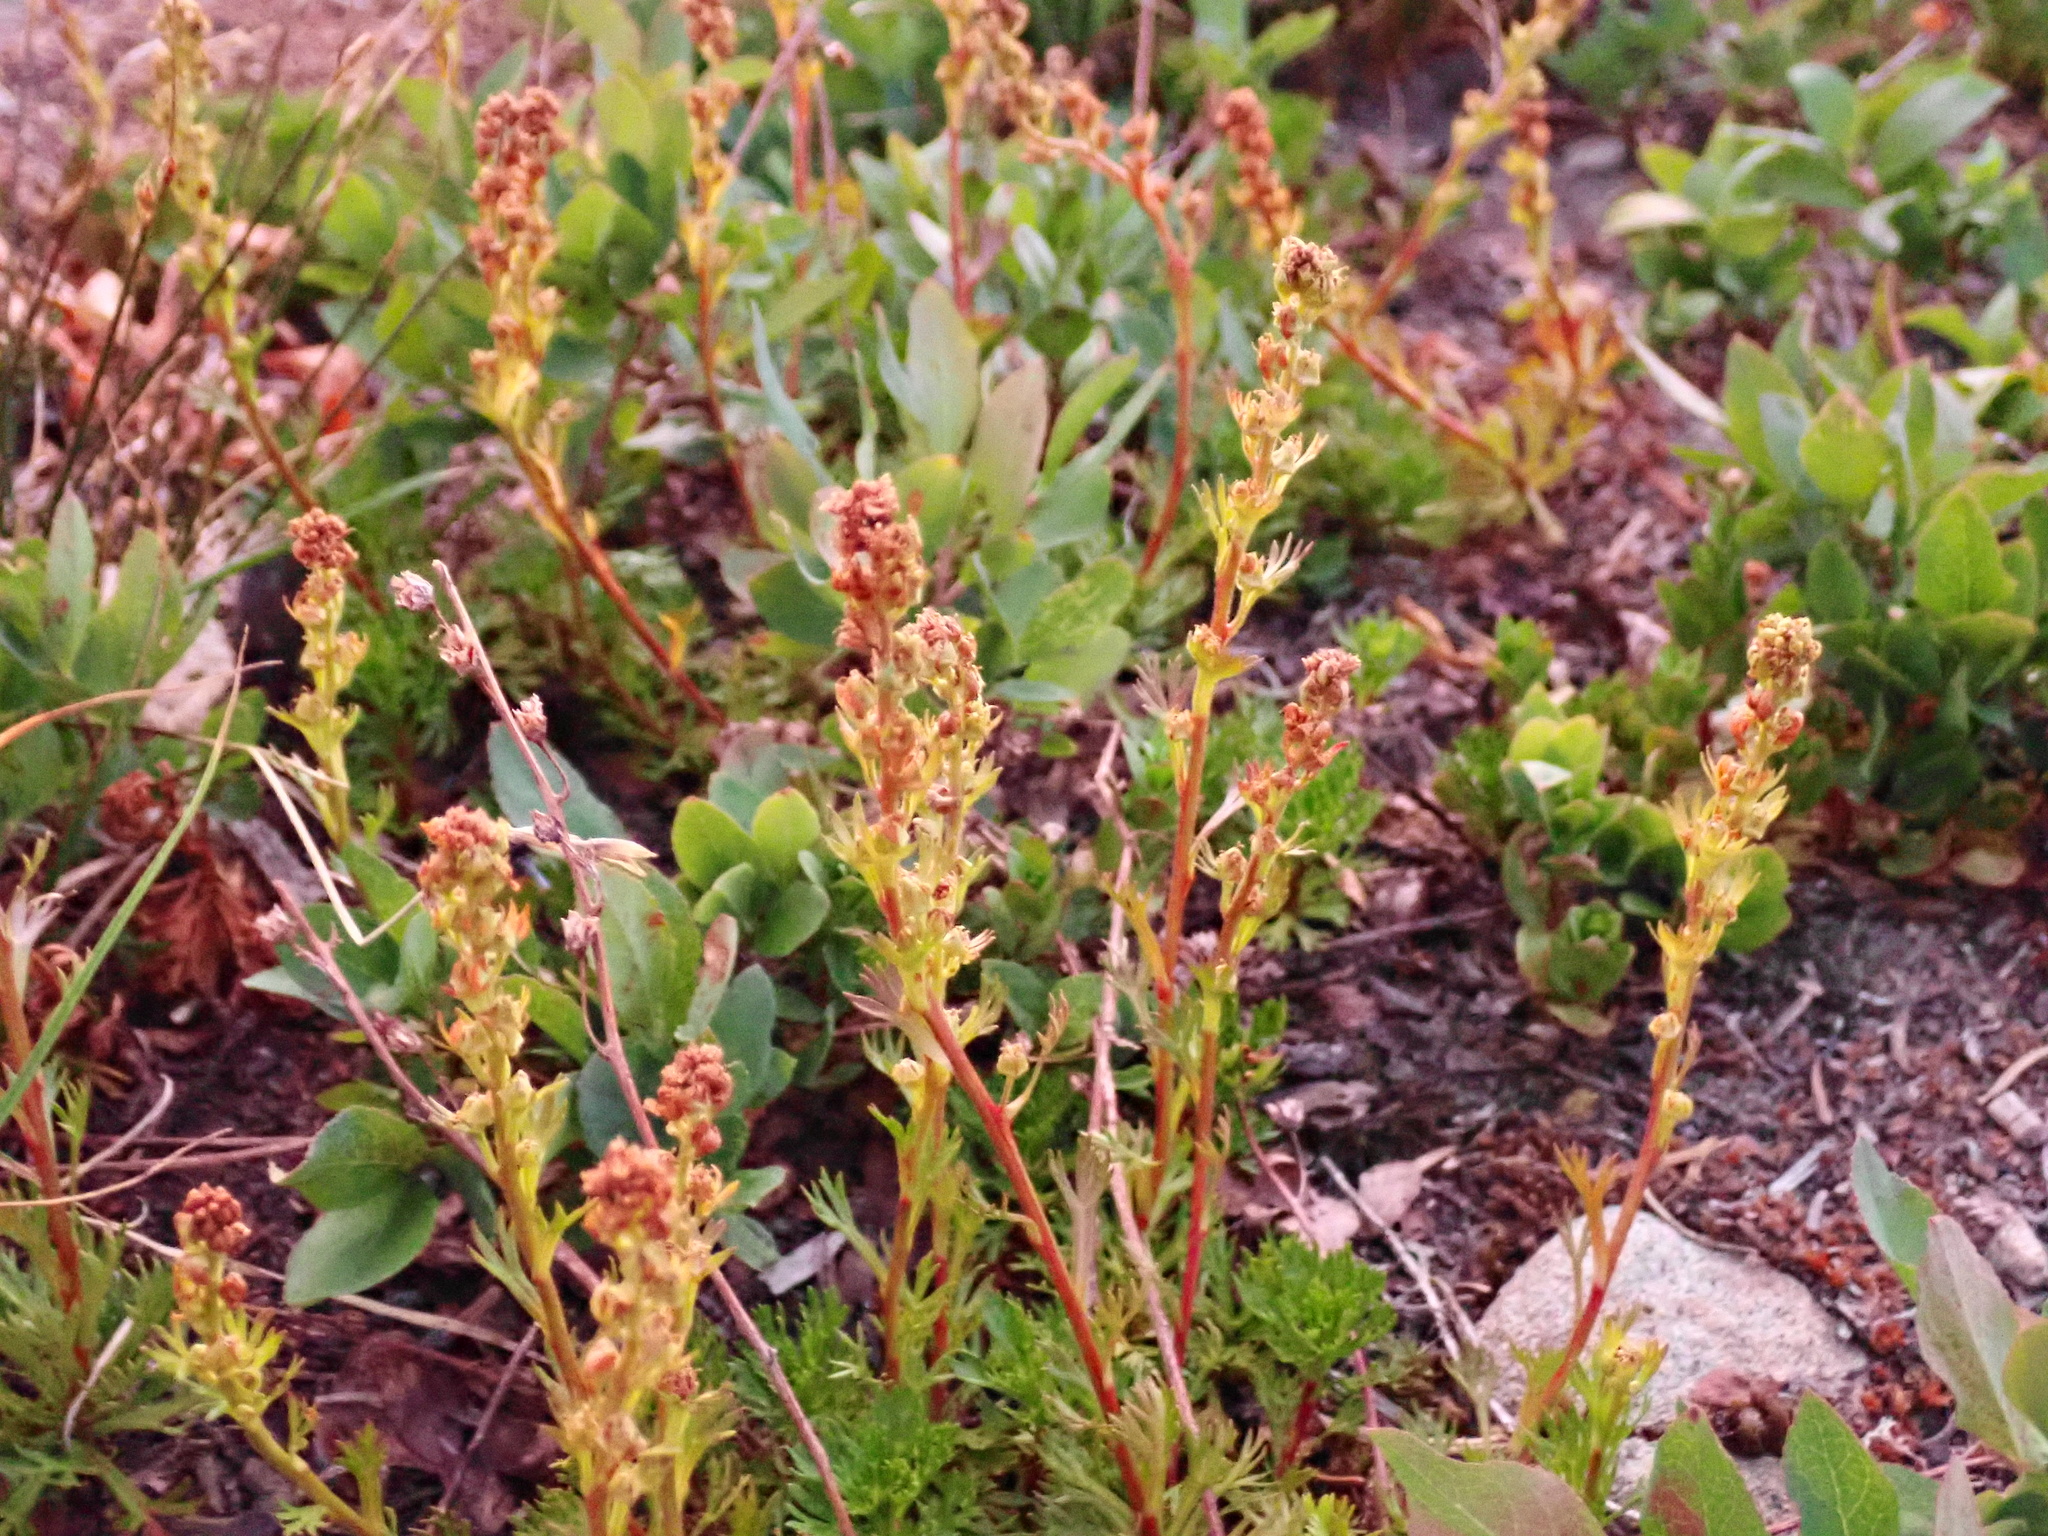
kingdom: Plantae
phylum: Tracheophyta
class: Magnoliopsida
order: Rosales
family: Rosaceae
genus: Luetkea
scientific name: Luetkea pectinata
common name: Partridgefoot
